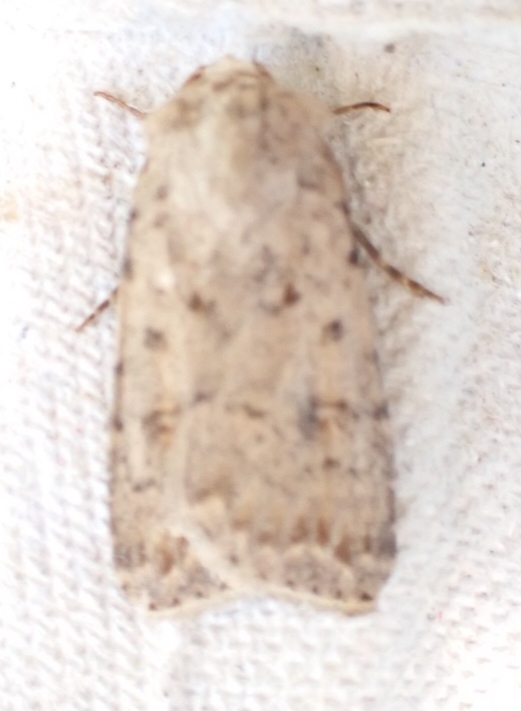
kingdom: Animalia
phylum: Arthropoda
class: Insecta
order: Lepidoptera
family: Noctuidae
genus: Caradrina
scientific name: Caradrina clavipalpis
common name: Pale mottled willow
